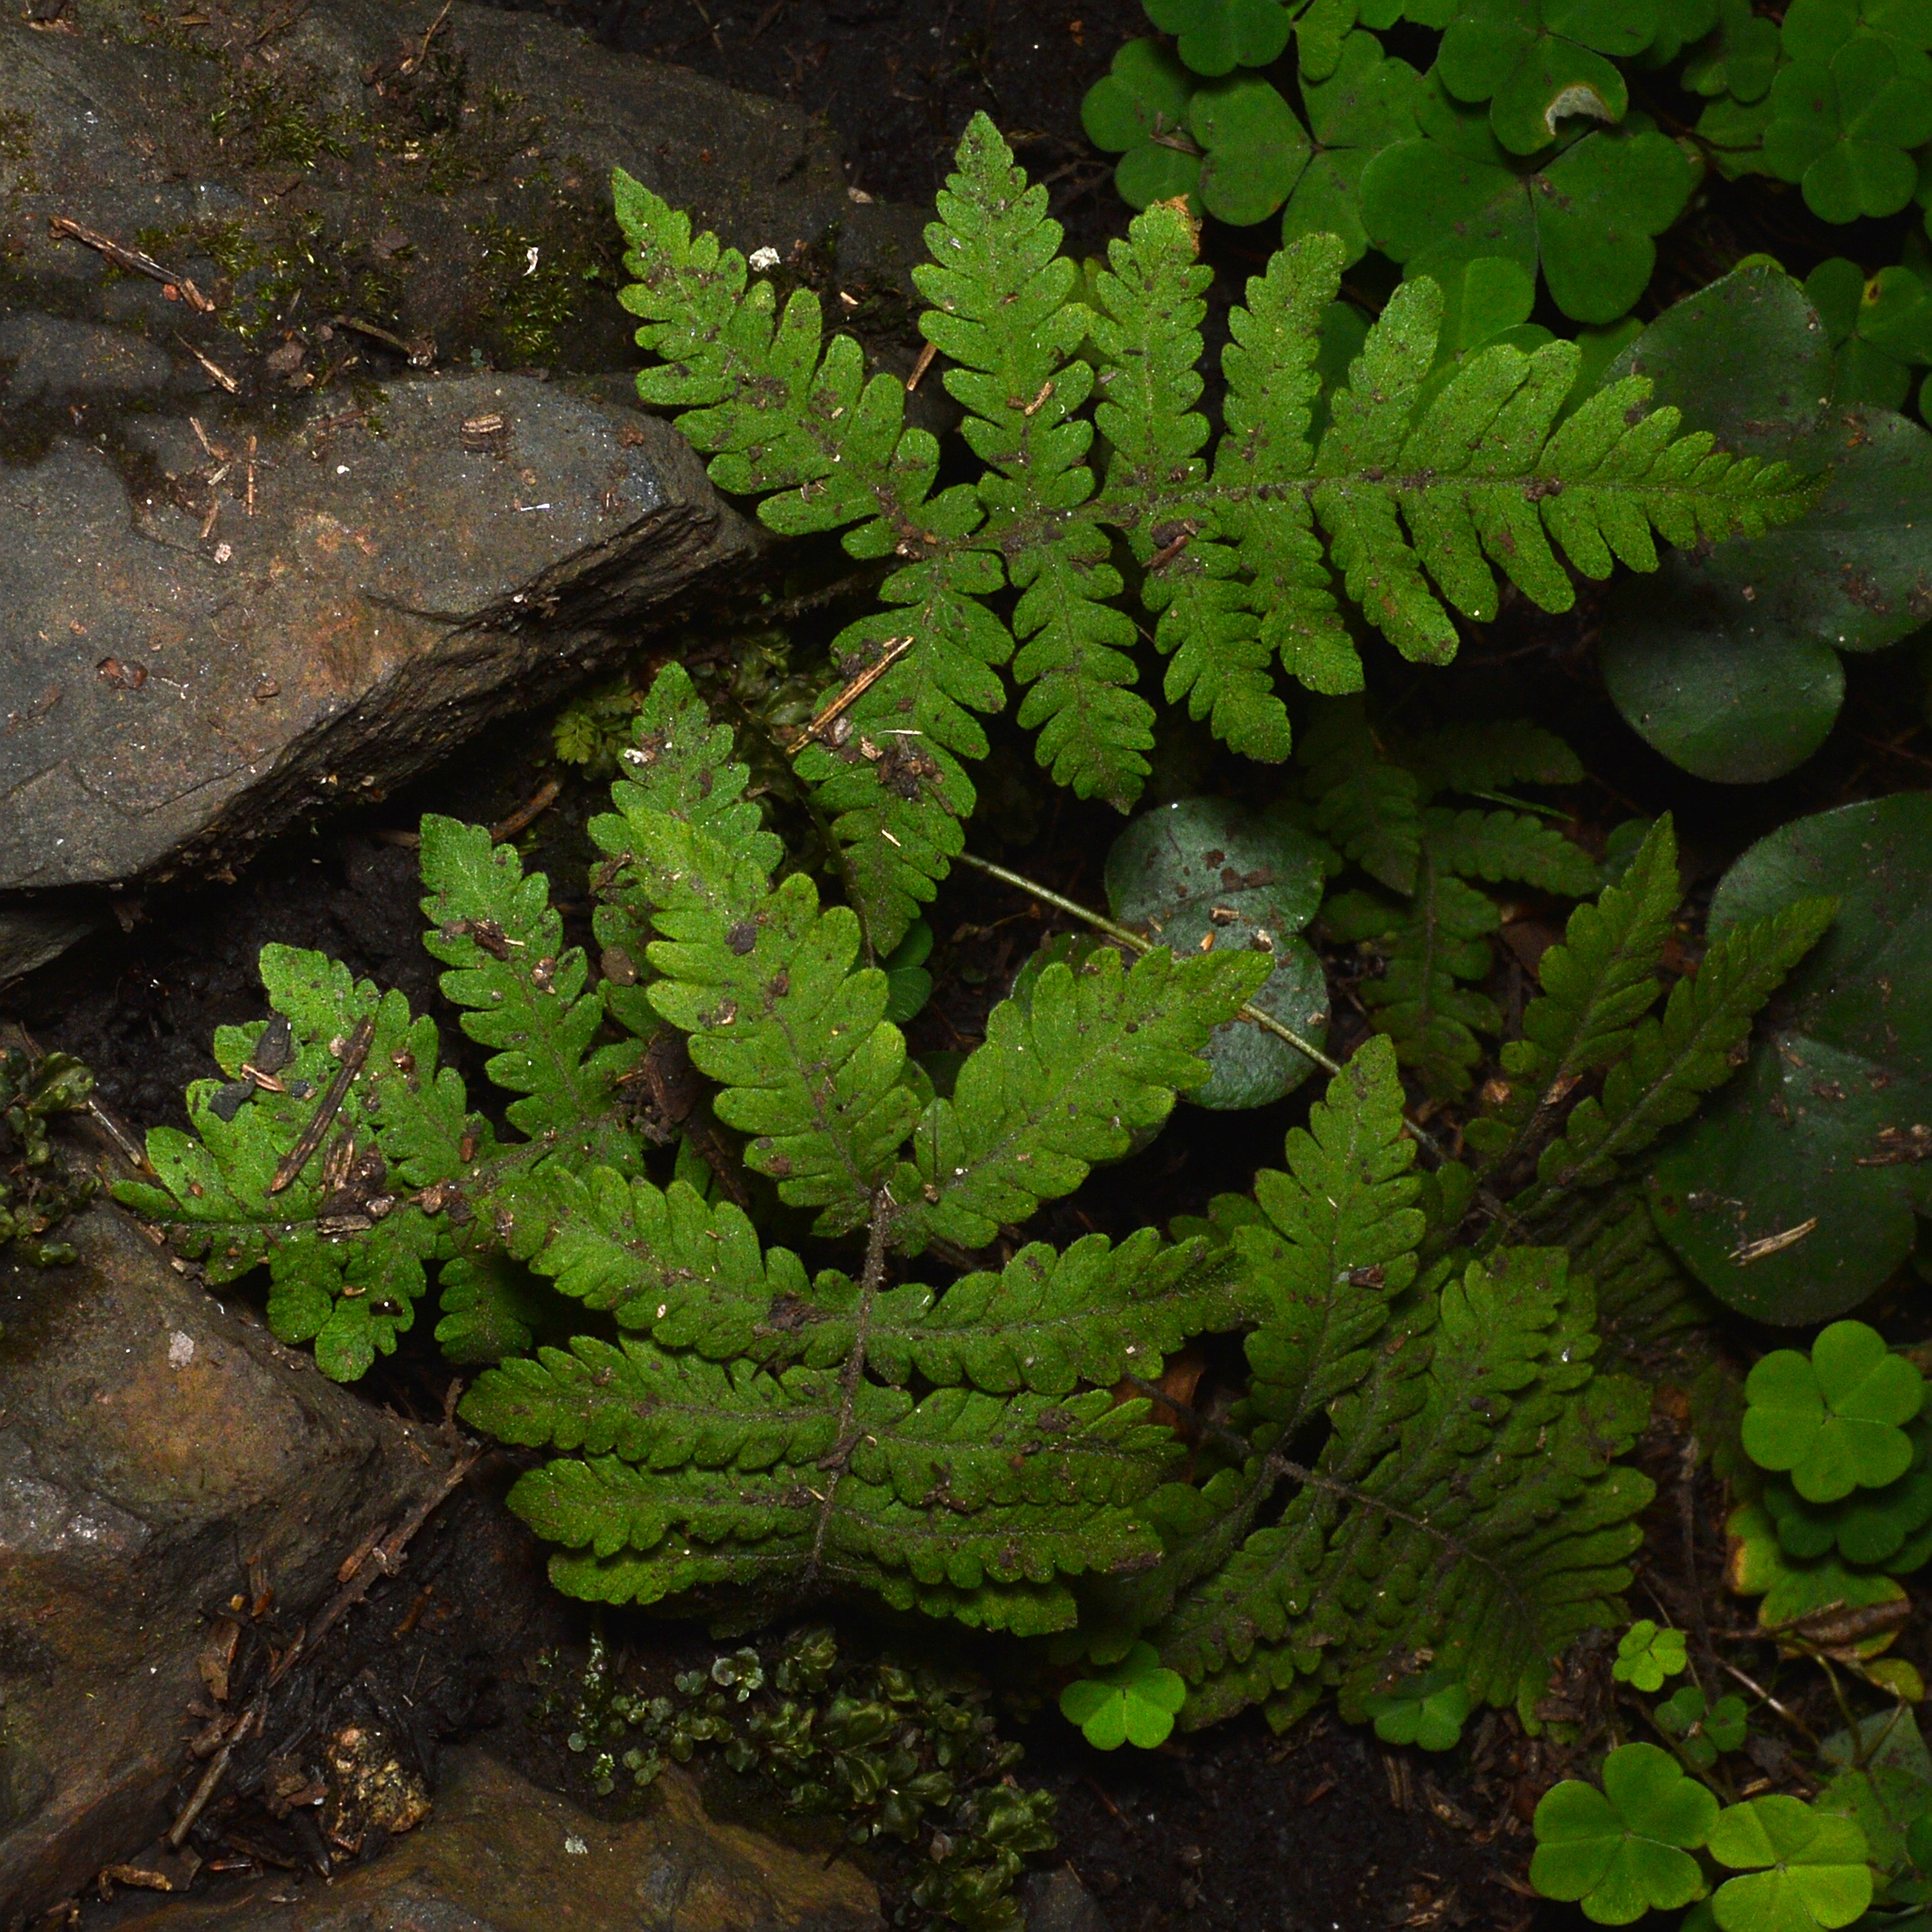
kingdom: Plantae
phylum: Tracheophyta
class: Polypodiopsida
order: Polypodiales
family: Thelypteridaceae
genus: Phegopteris
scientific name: Phegopteris connectilis
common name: Beech fern
